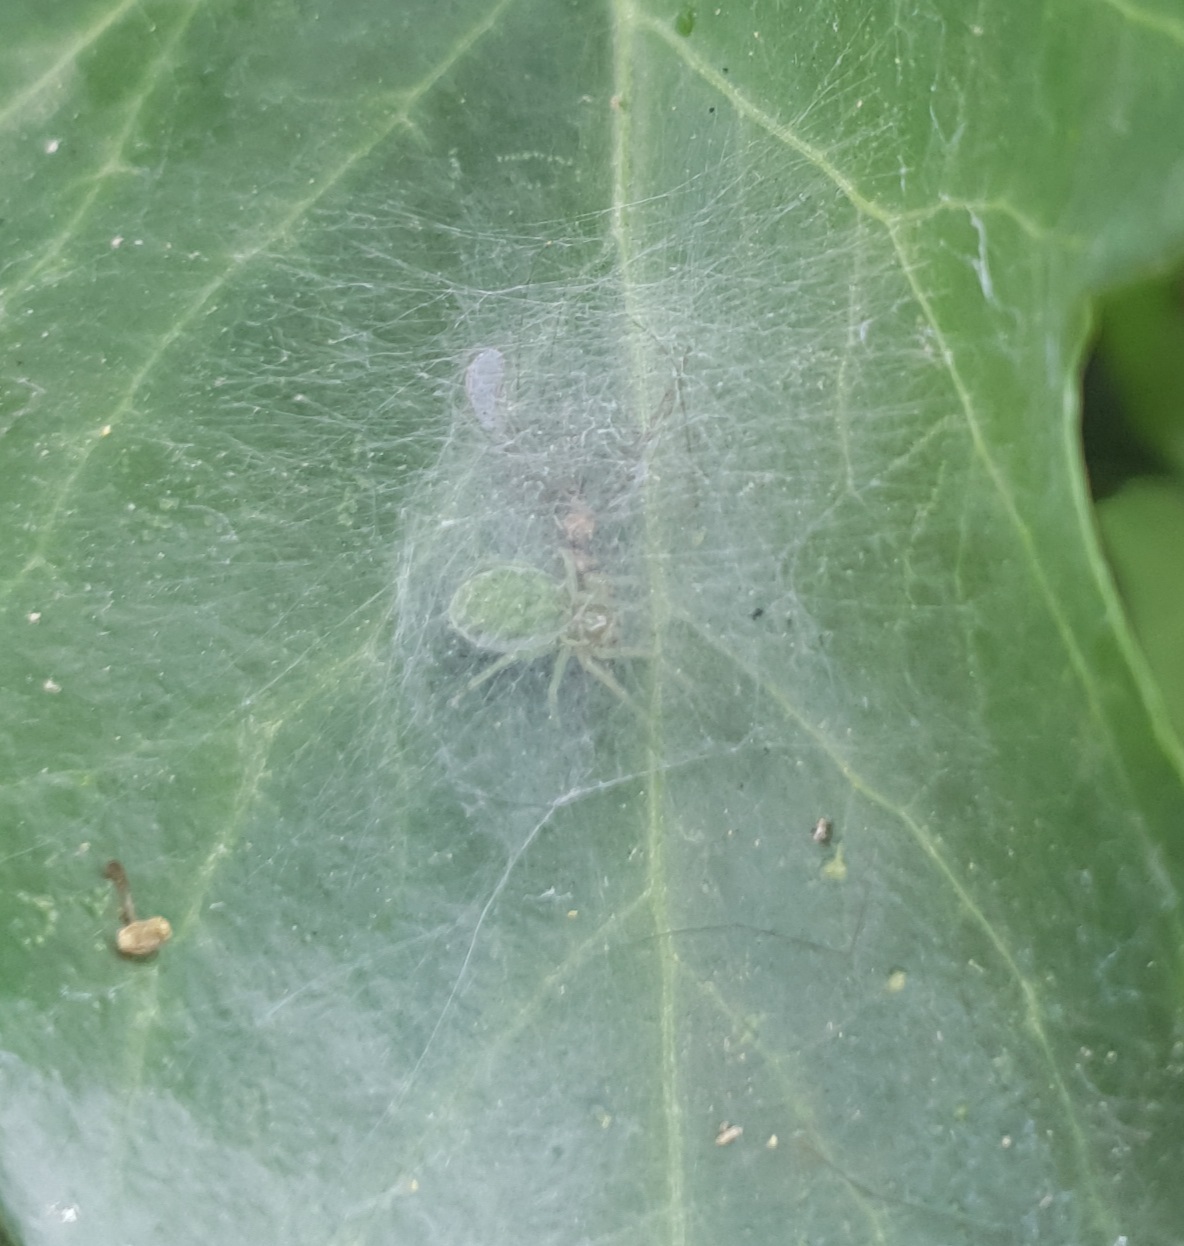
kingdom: Animalia
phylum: Arthropoda
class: Arachnida
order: Araneae
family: Dictynidae
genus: Nigma
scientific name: Nigma walckenaeri
